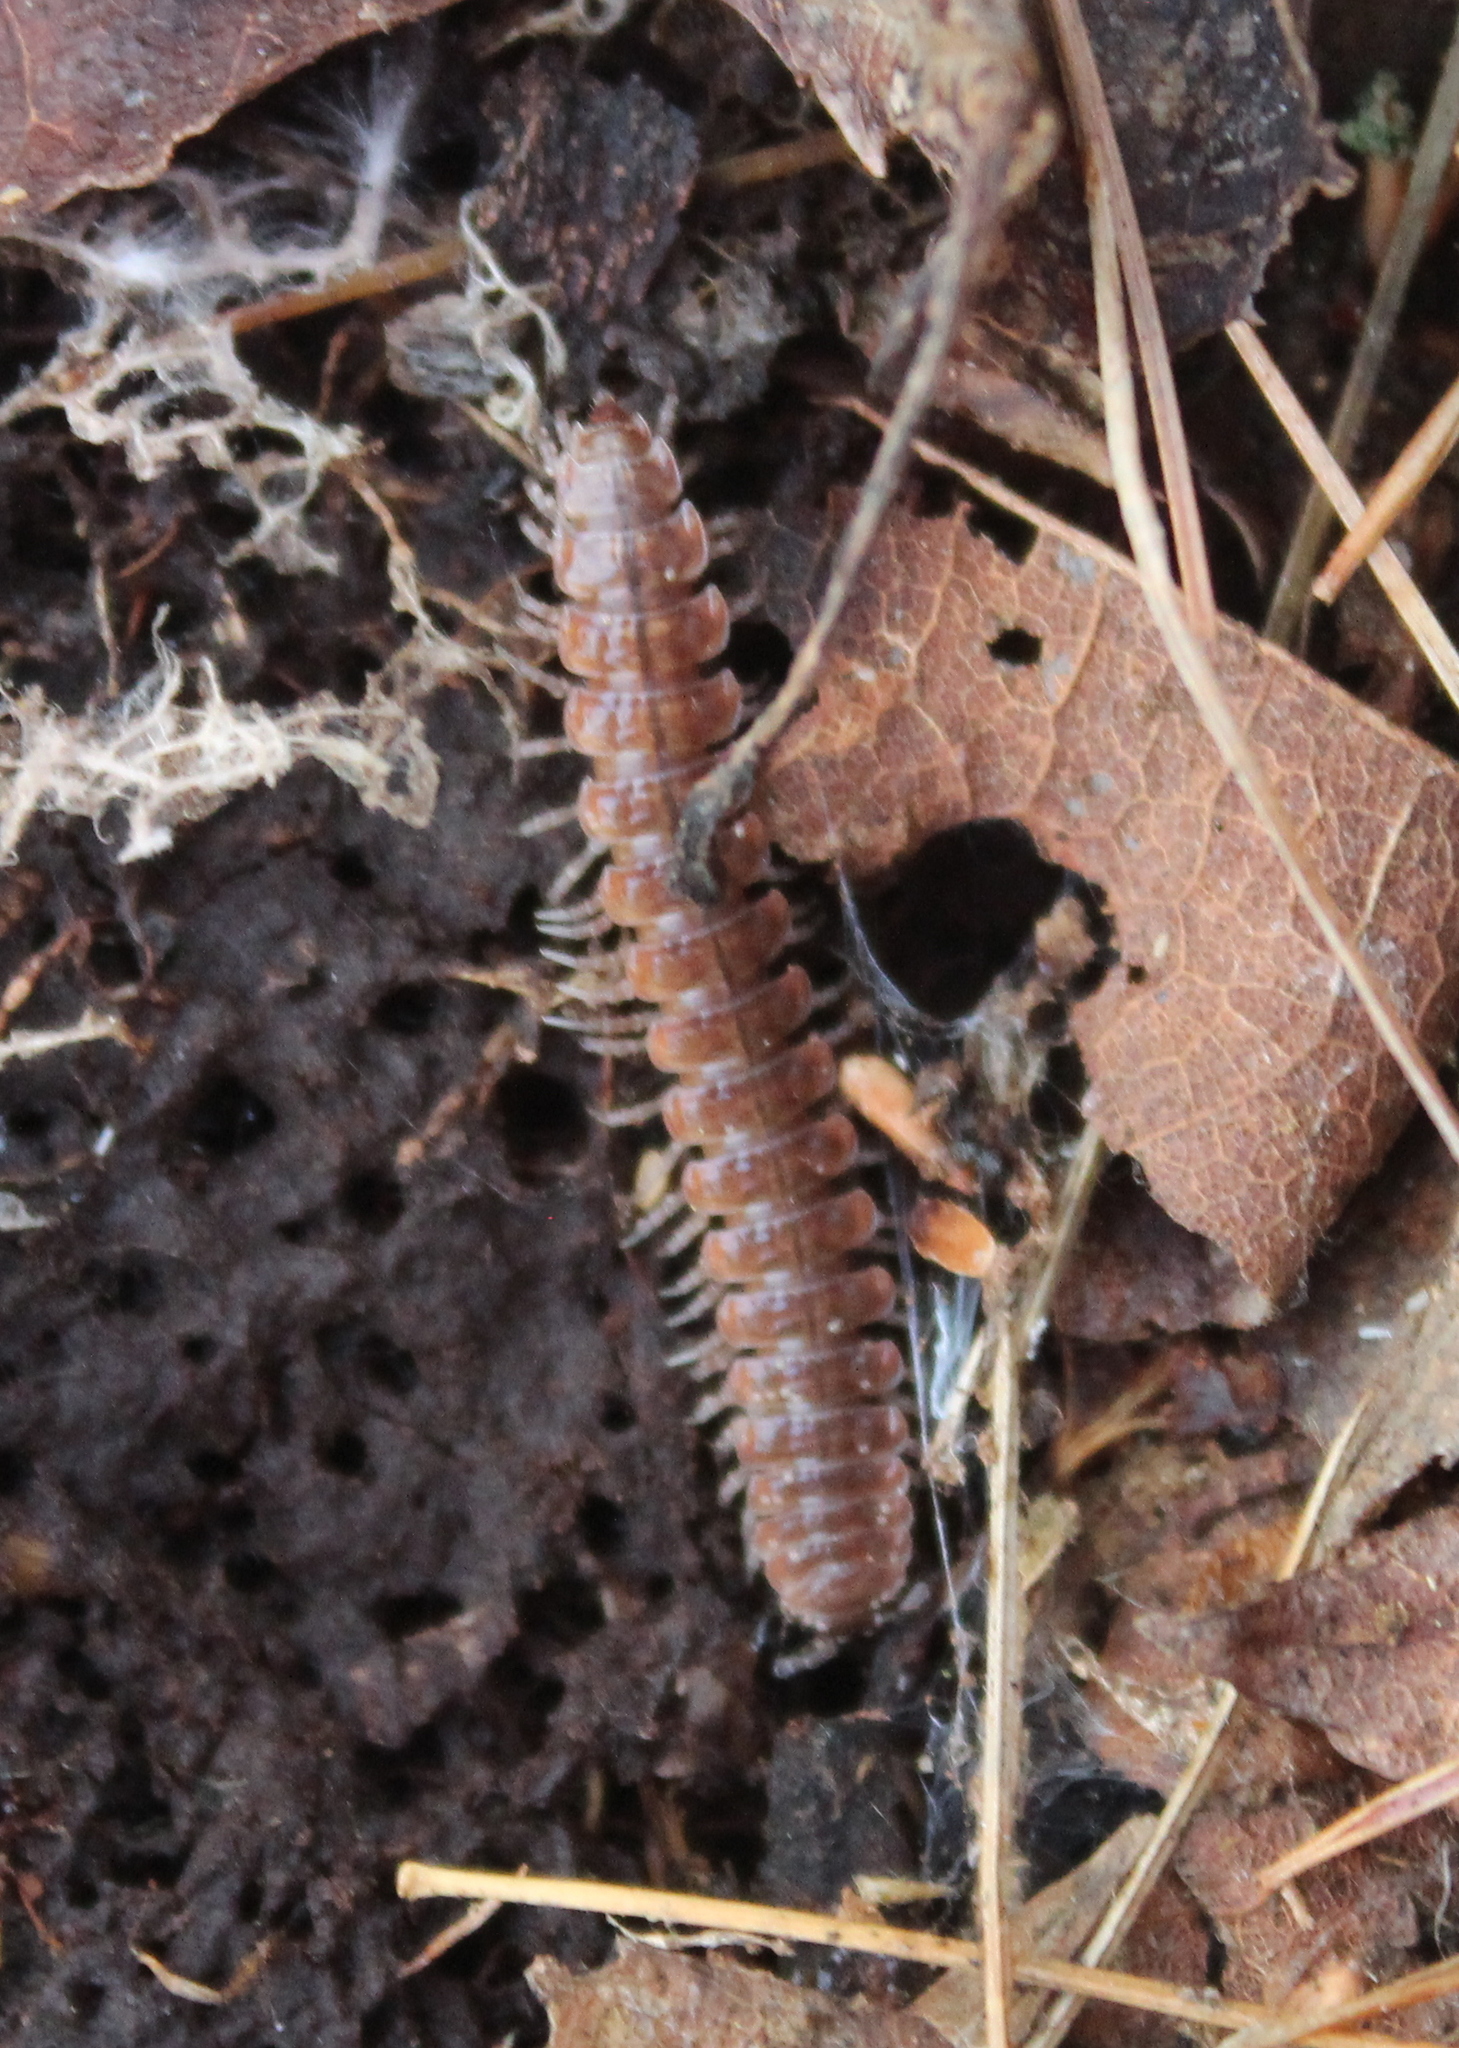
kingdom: Animalia
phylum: Arthropoda
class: Diplopoda
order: Polydesmida
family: Polydesmidae
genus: Pseudopolydesmus
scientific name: Pseudopolydesmus serratus
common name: Common pink flat-back millipede
